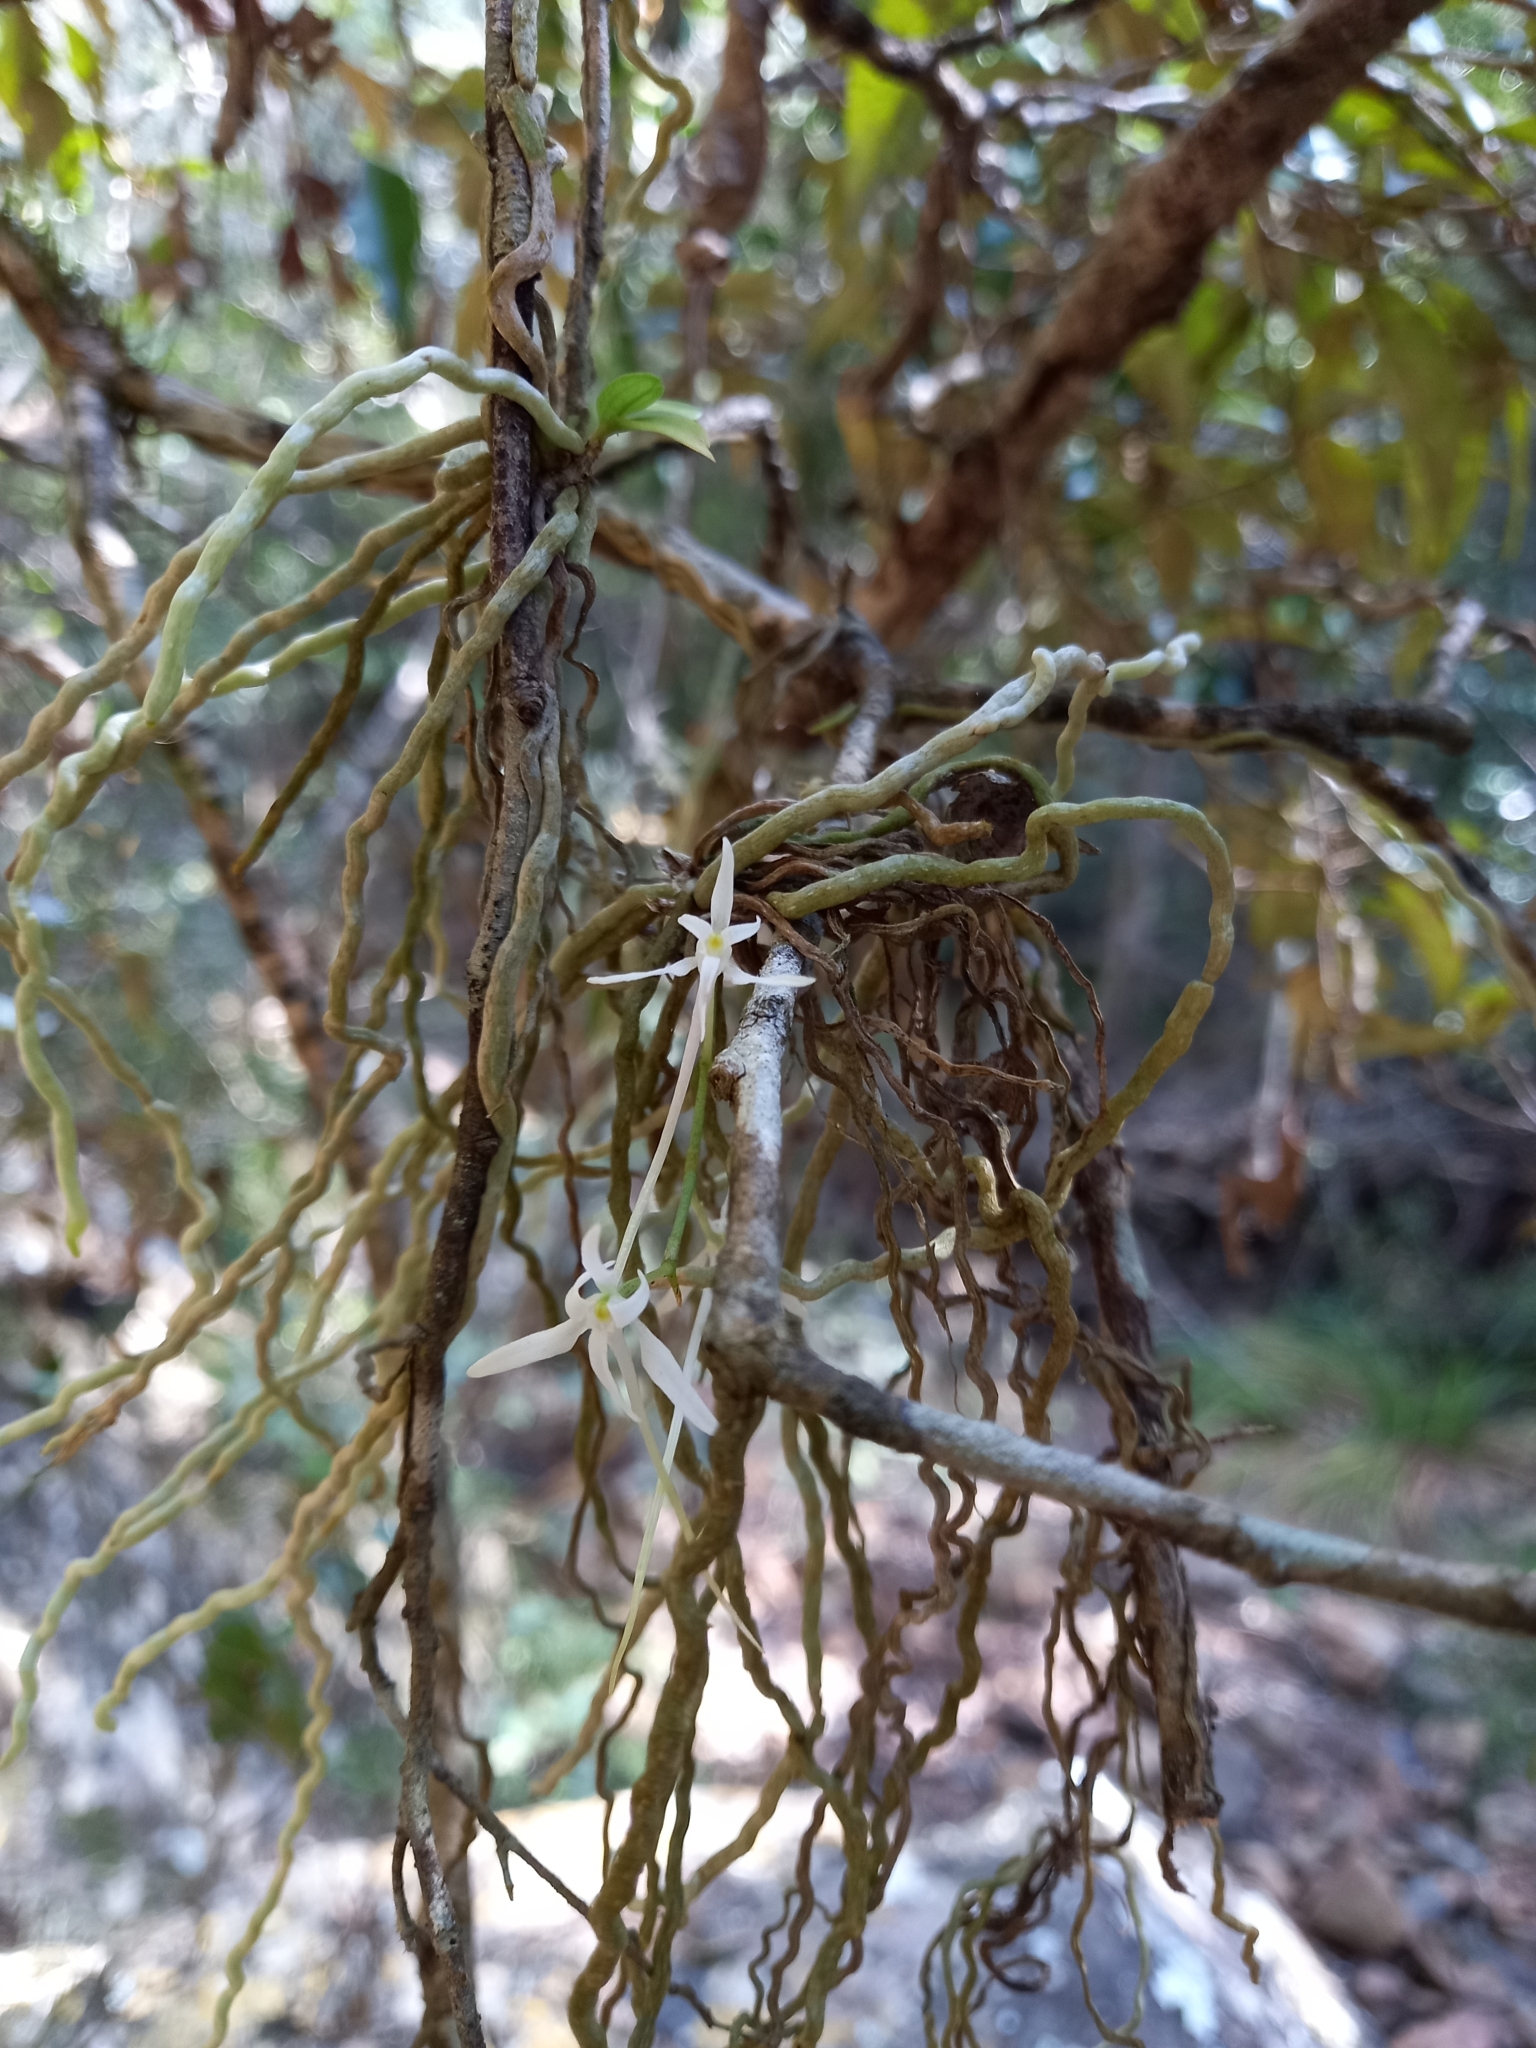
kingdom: Plantae
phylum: Tracheophyta
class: Liliopsida
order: Asparagales
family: Orchidaceae
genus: Mystacidium
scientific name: Mystacidium capense
